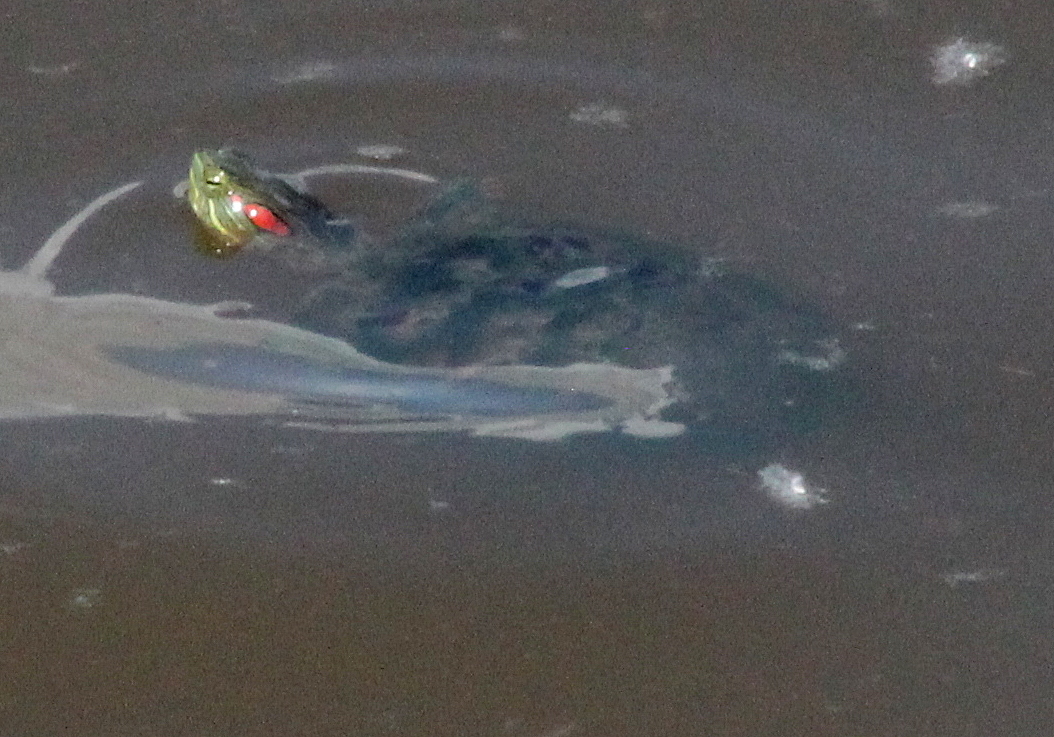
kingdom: Animalia
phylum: Chordata
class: Testudines
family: Emydidae
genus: Trachemys
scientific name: Trachemys scripta
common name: Slider
